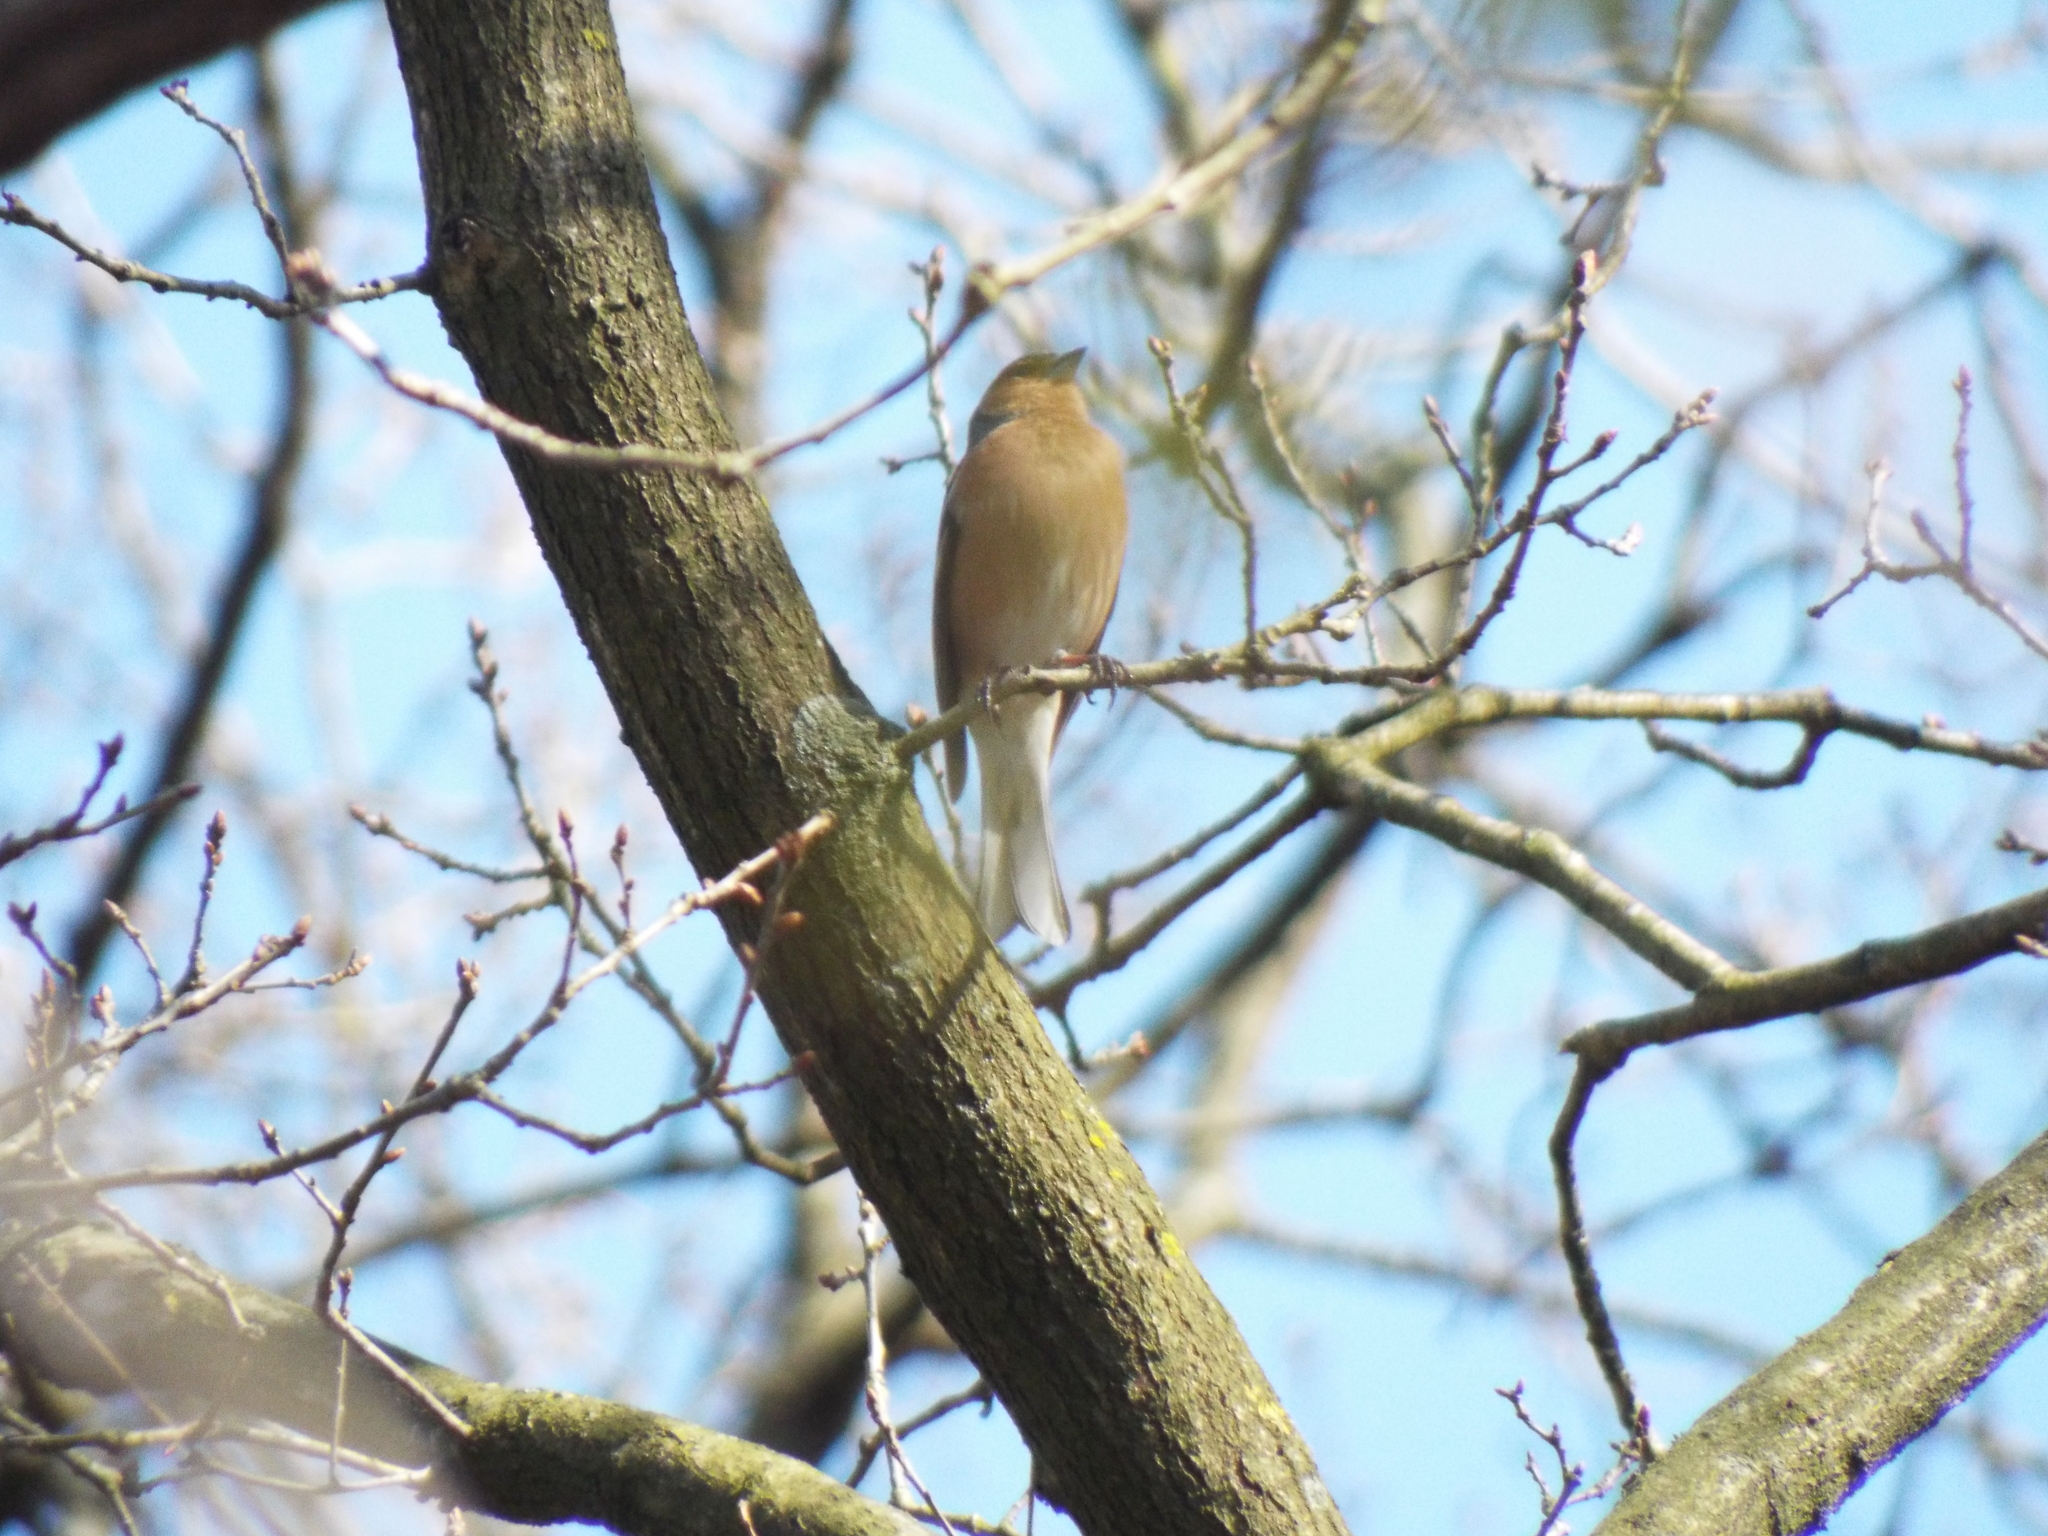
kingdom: Animalia
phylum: Chordata
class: Aves
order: Passeriformes
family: Fringillidae
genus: Fringilla
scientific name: Fringilla coelebs
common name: Common chaffinch
